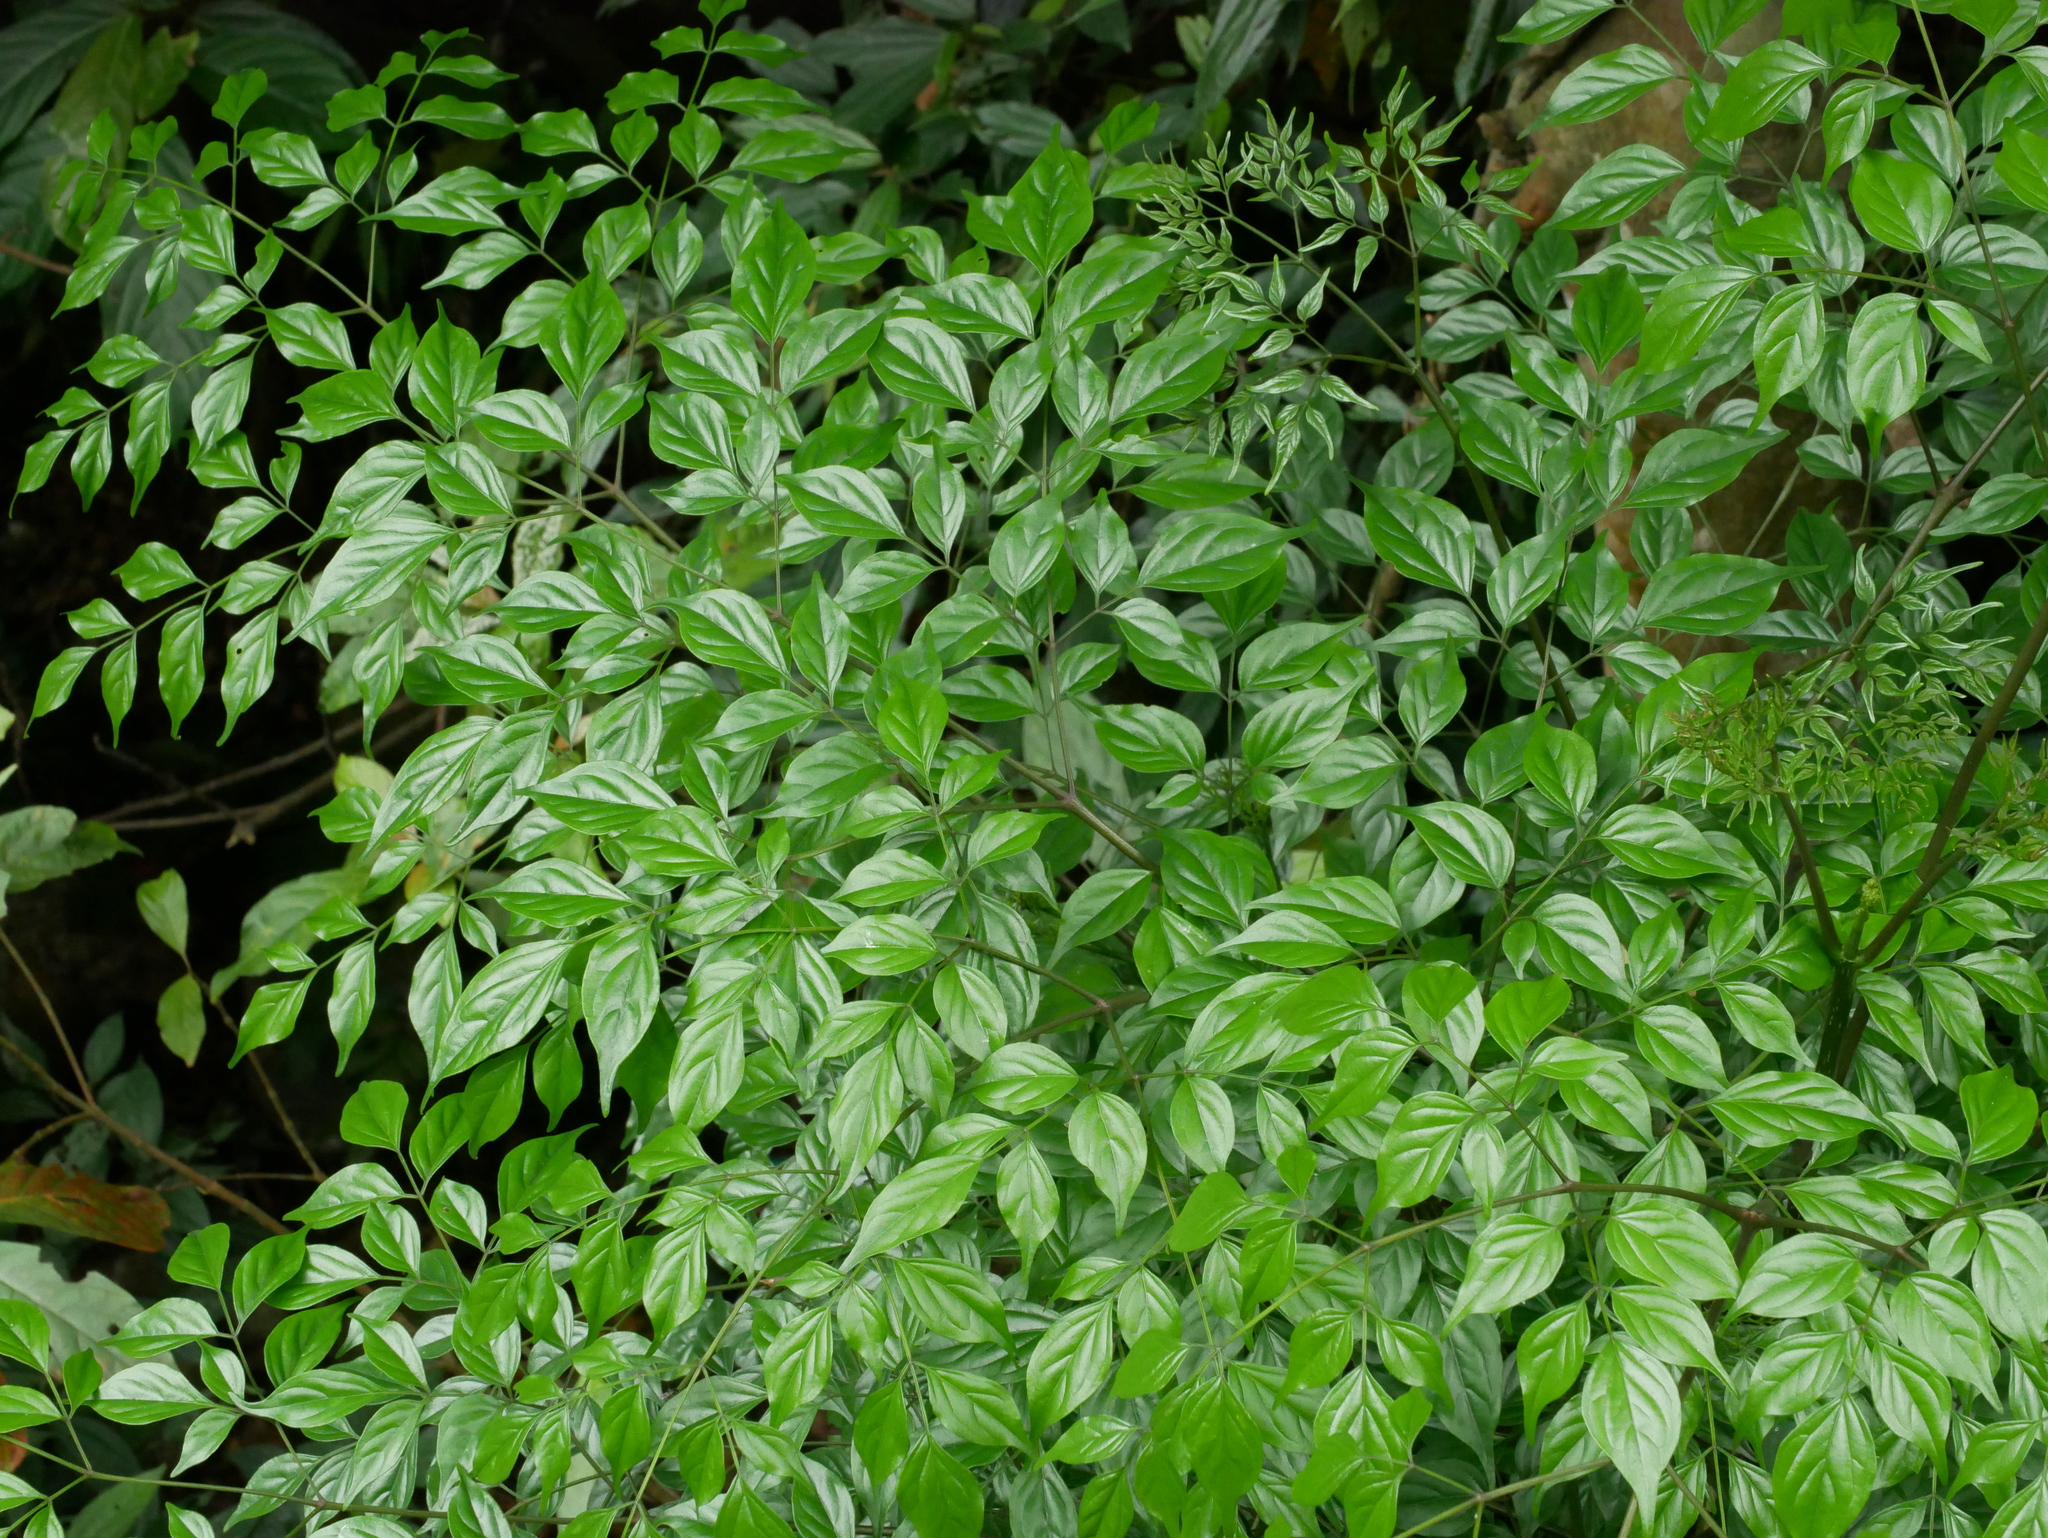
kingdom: Plantae
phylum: Tracheophyta
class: Magnoliopsida
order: Lamiales
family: Bignoniaceae
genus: Radermachera
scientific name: Radermachera sinica
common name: China doll plant
